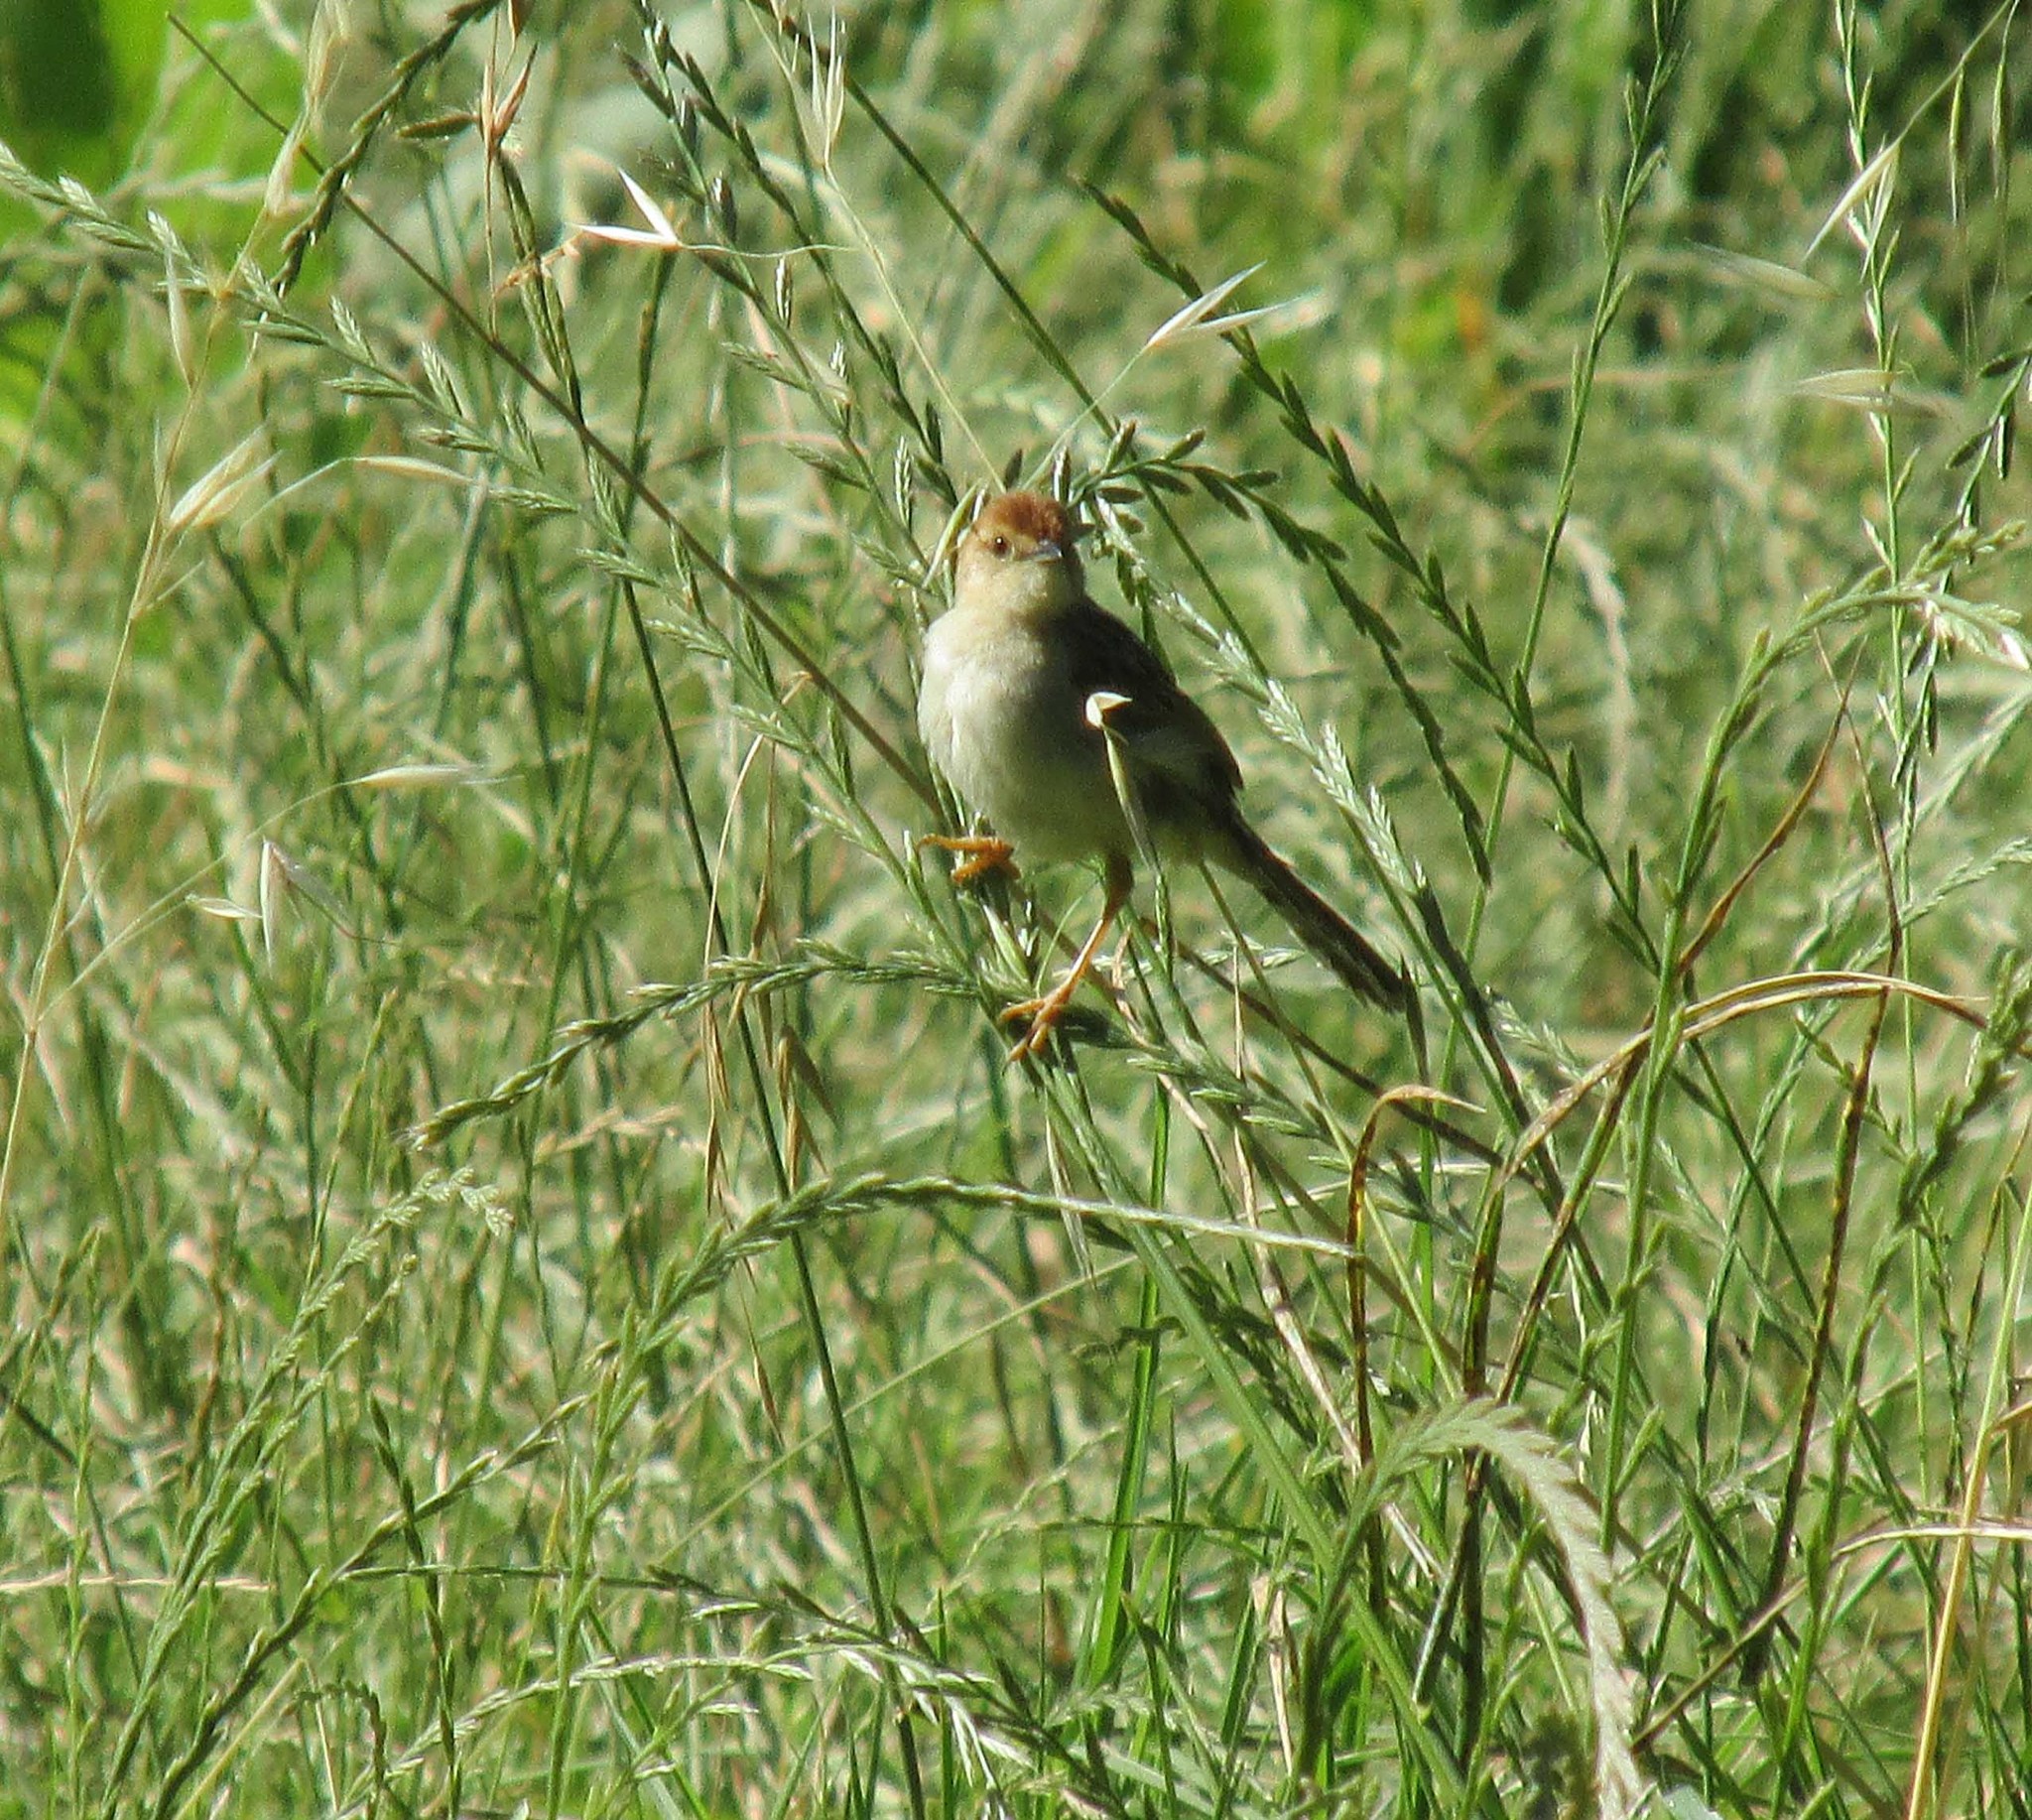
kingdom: Animalia
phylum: Chordata
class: Aves
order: Passeriformes
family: Cisticolidae
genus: Cisticola
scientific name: Cisticola tinniens
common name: Levaillant's cisticola
